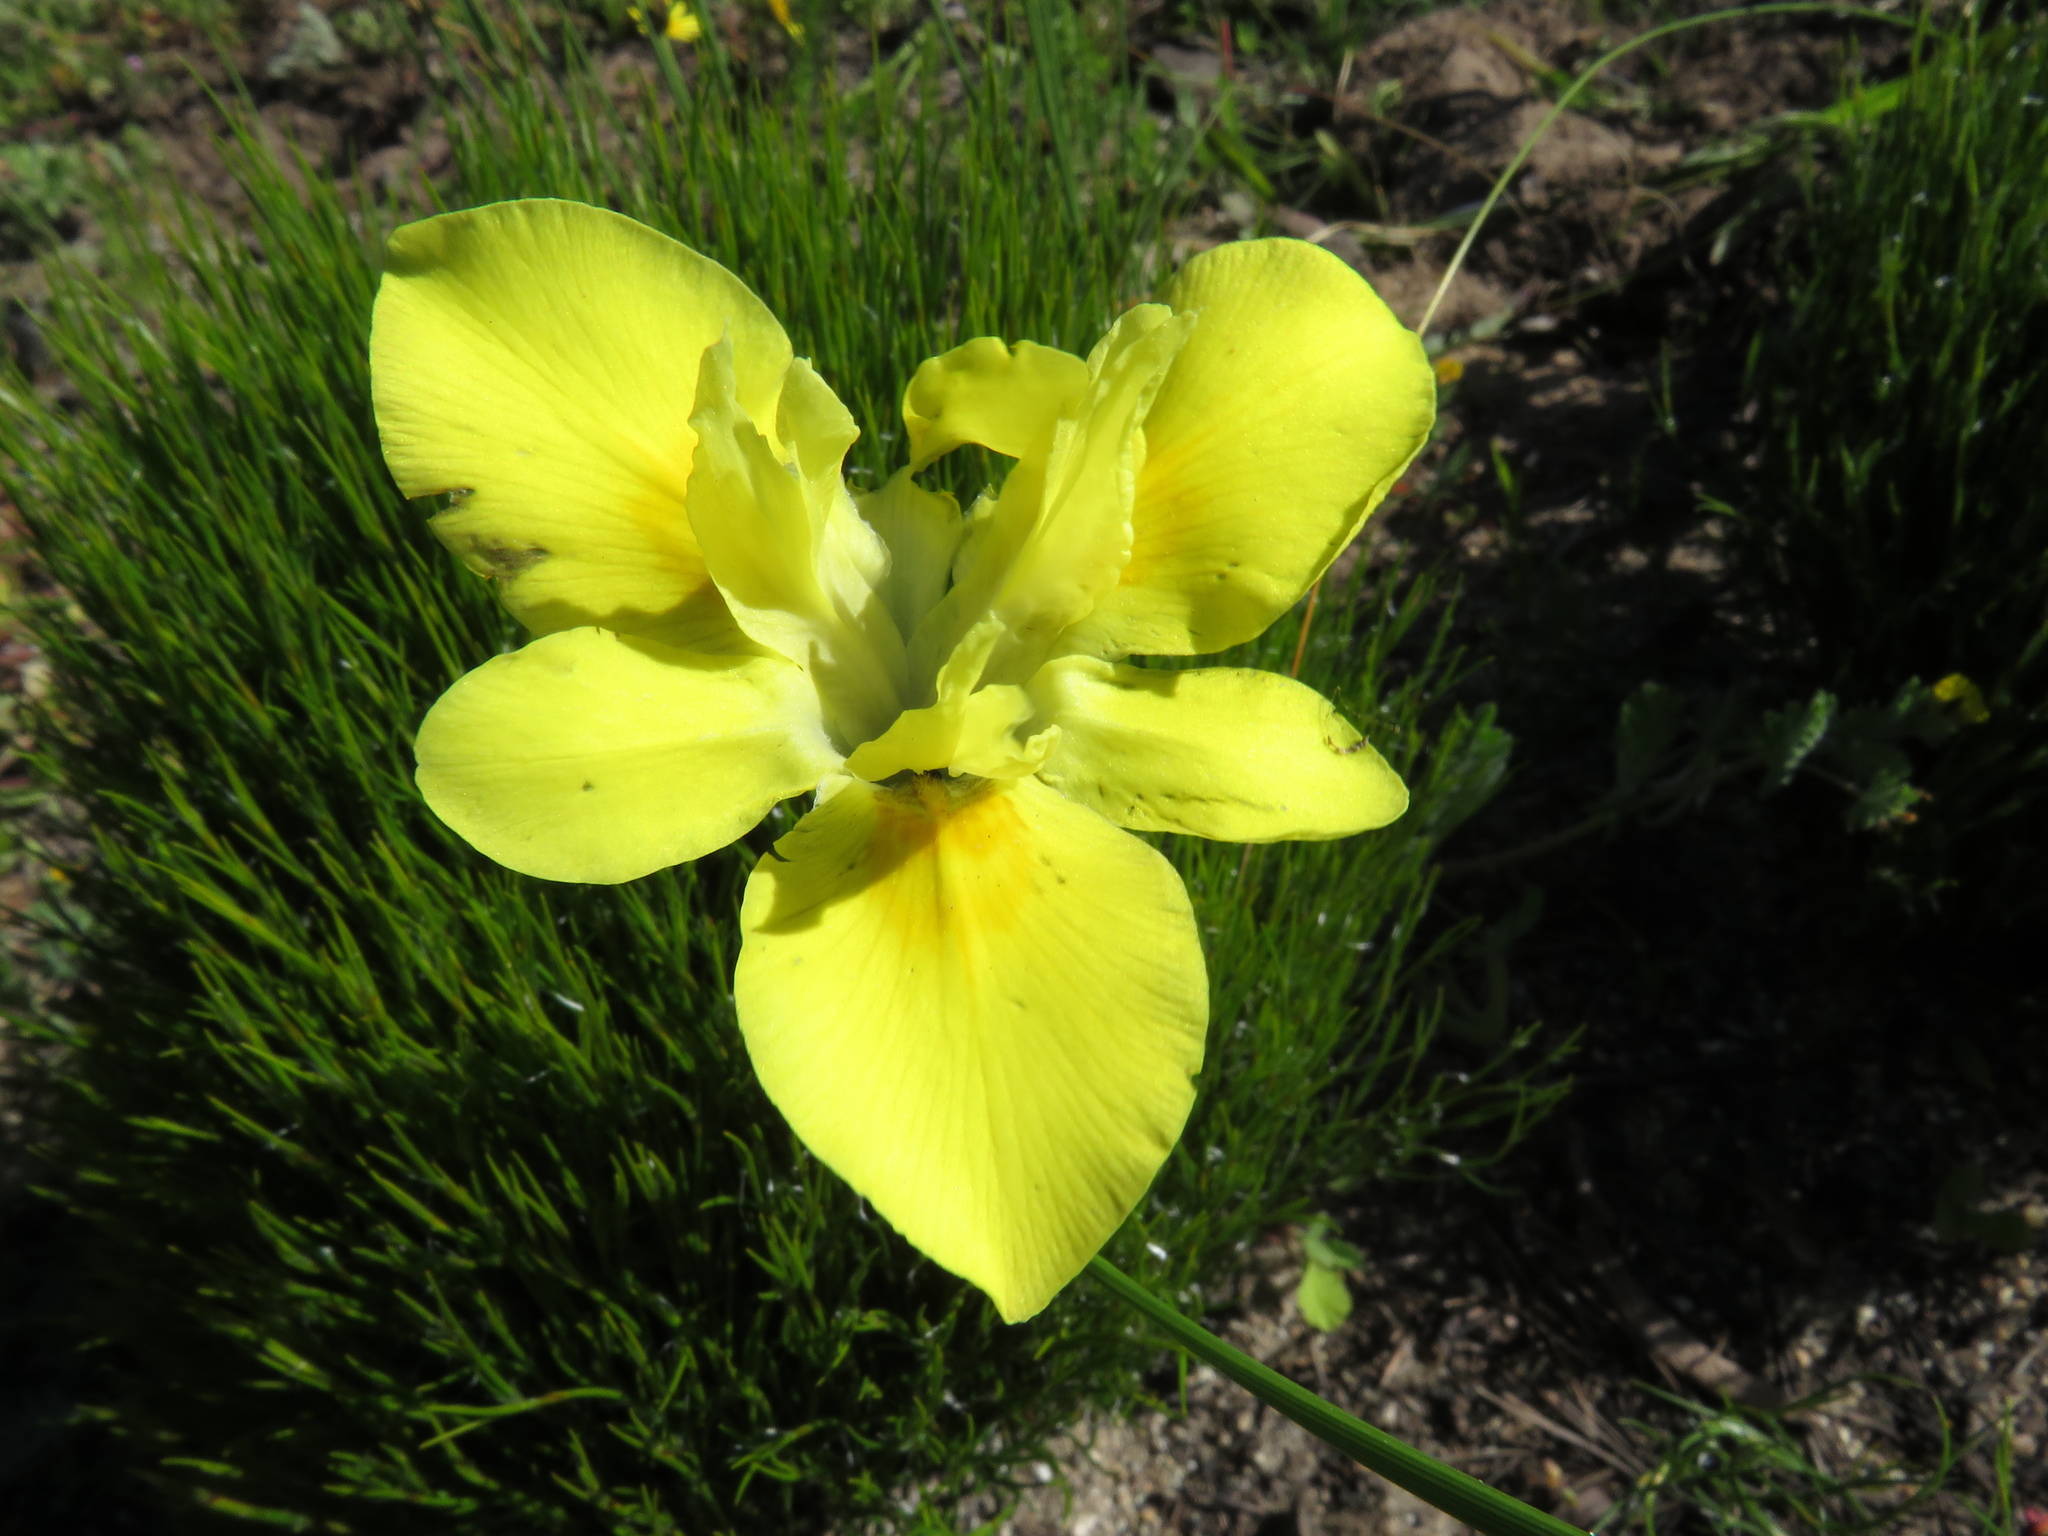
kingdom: Plantae
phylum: Tracheophyta
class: Liliopsida
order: Asparagales
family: Iridaceae
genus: Moraea
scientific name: Moraea fugax
